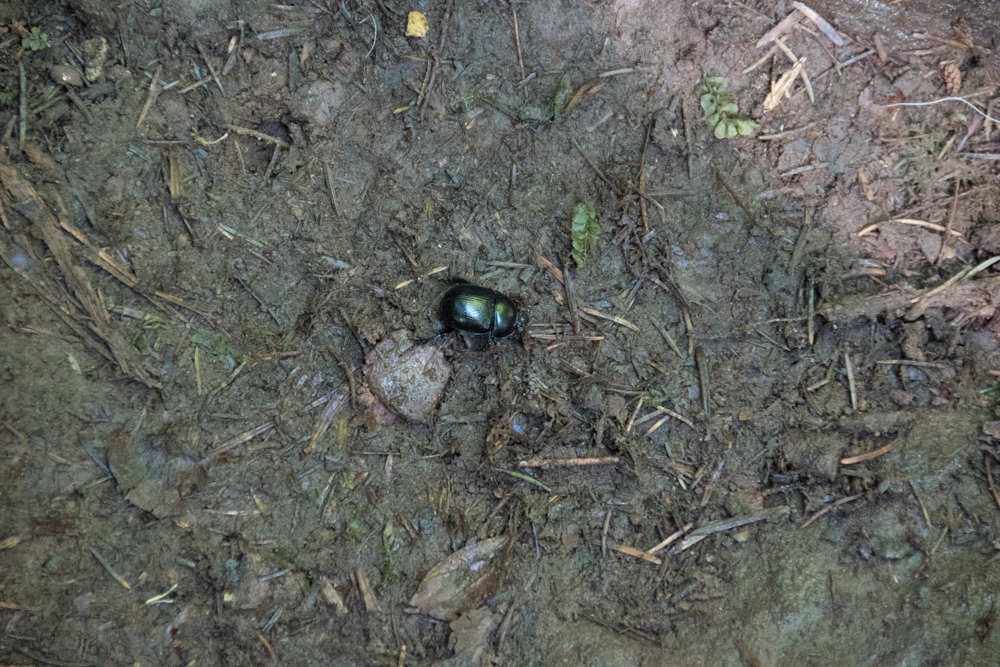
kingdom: Animalia
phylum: Arthropoda
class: Insecta
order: Coleoptera
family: Geotrupidae
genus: Anoplotrupes
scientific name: Anoplotrupes stercorosus
